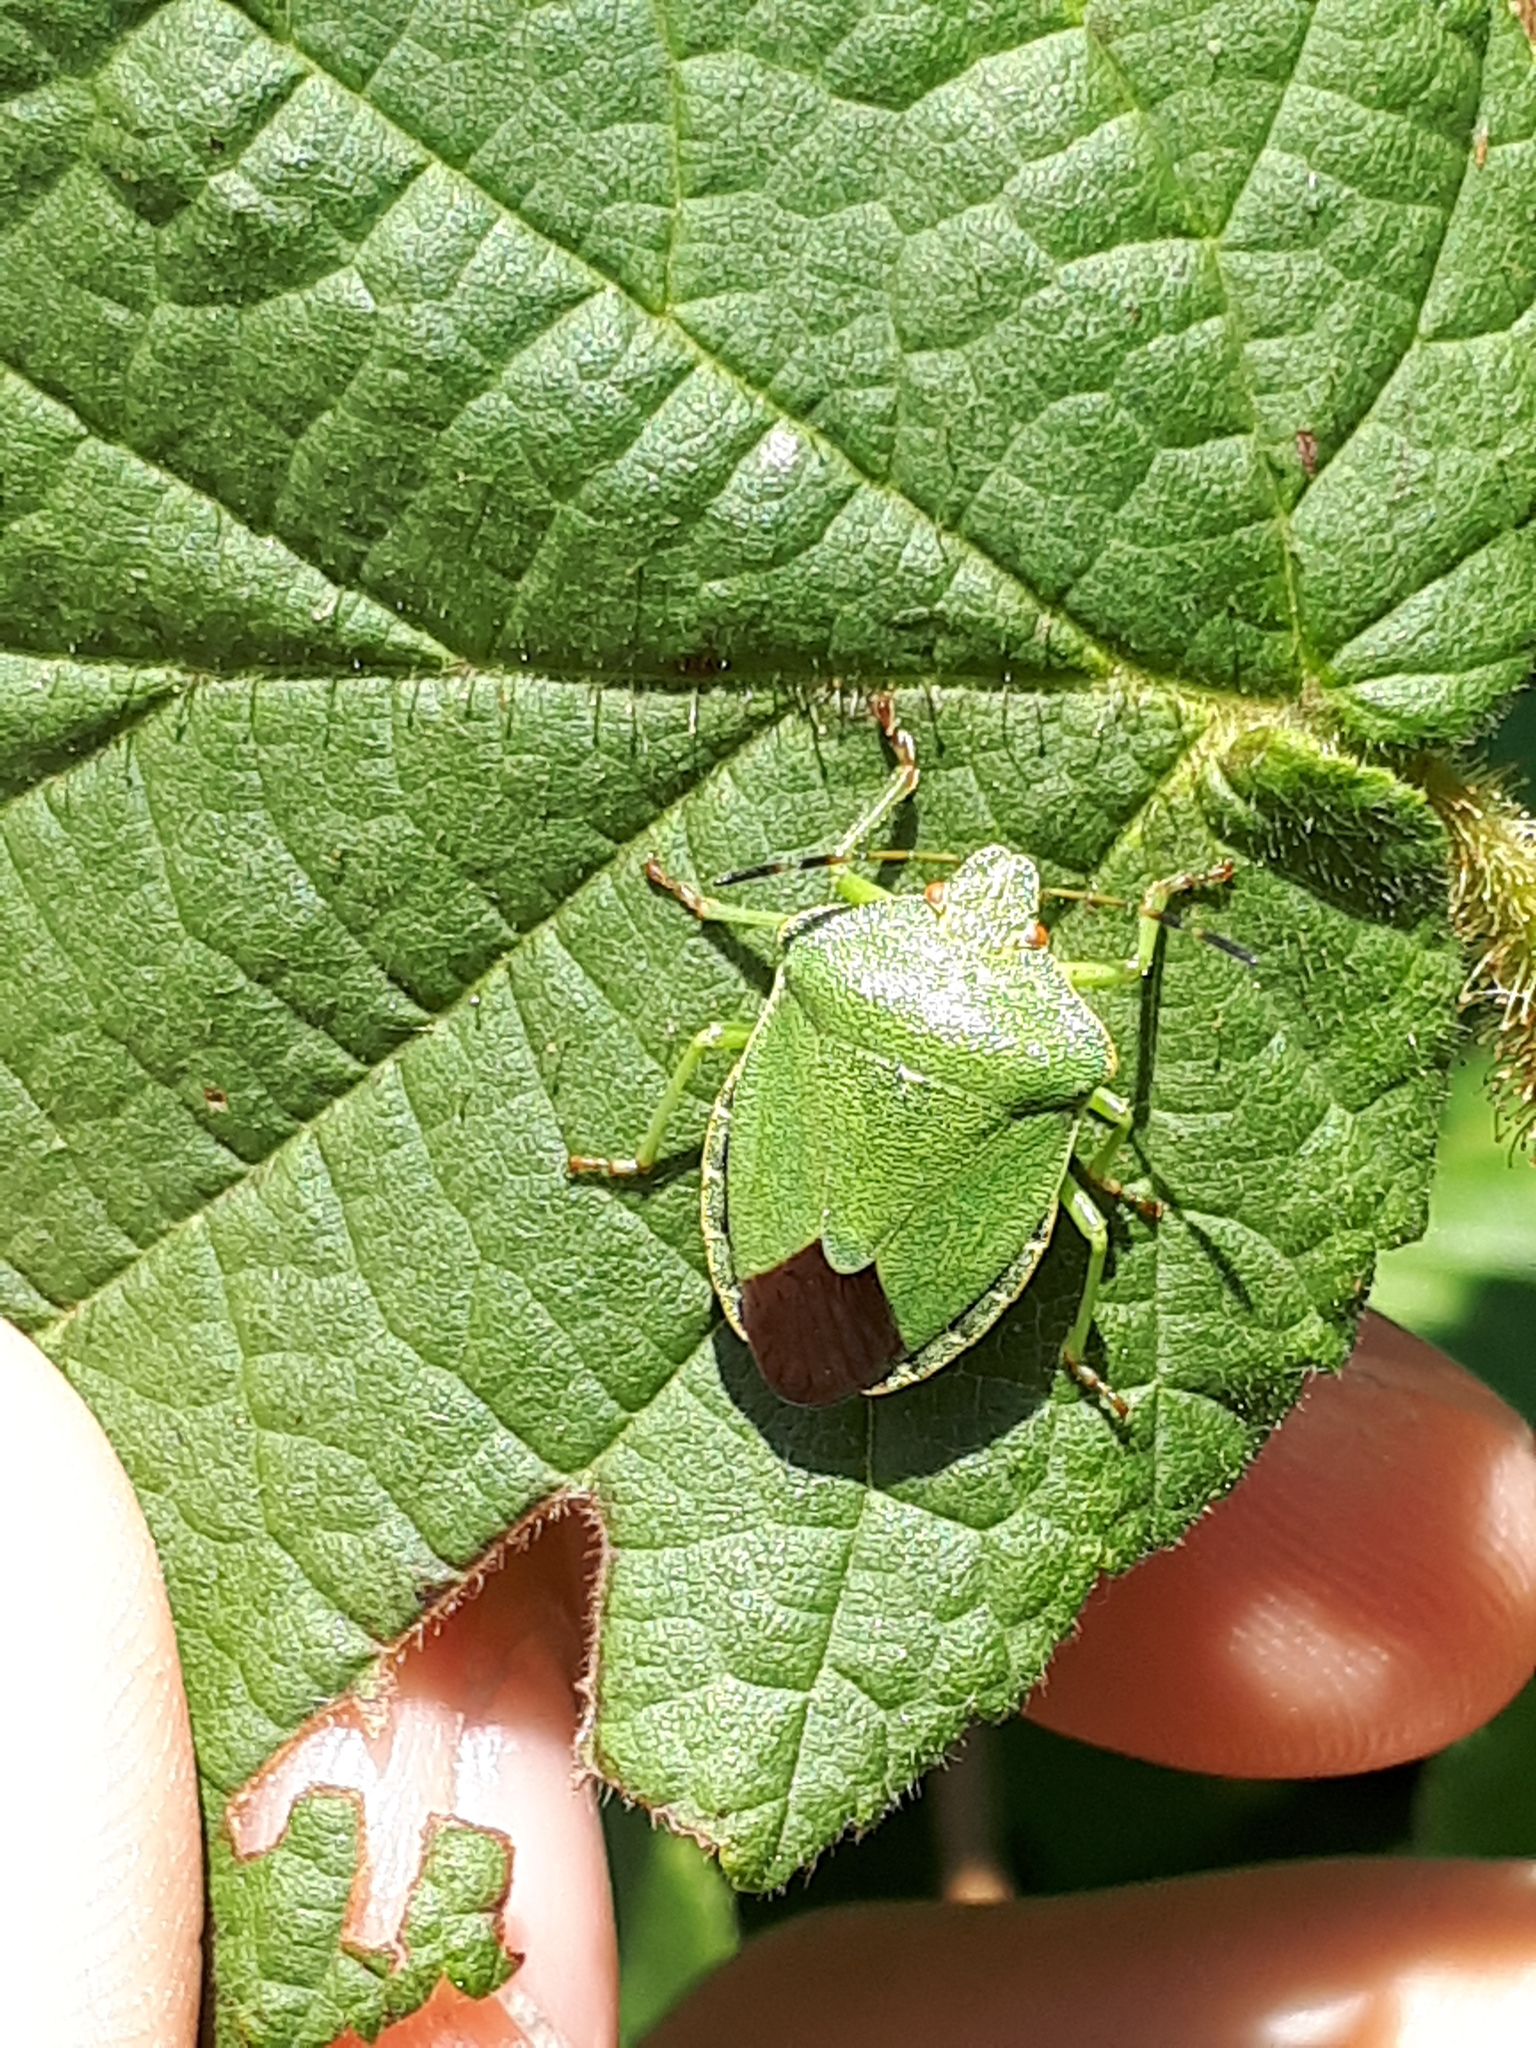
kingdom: Animalia
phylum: Arthropoda
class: Insecta
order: Hemiptera
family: Pentatomidae
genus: Palomena
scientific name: Palomena prasina
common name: Green shieldbug
